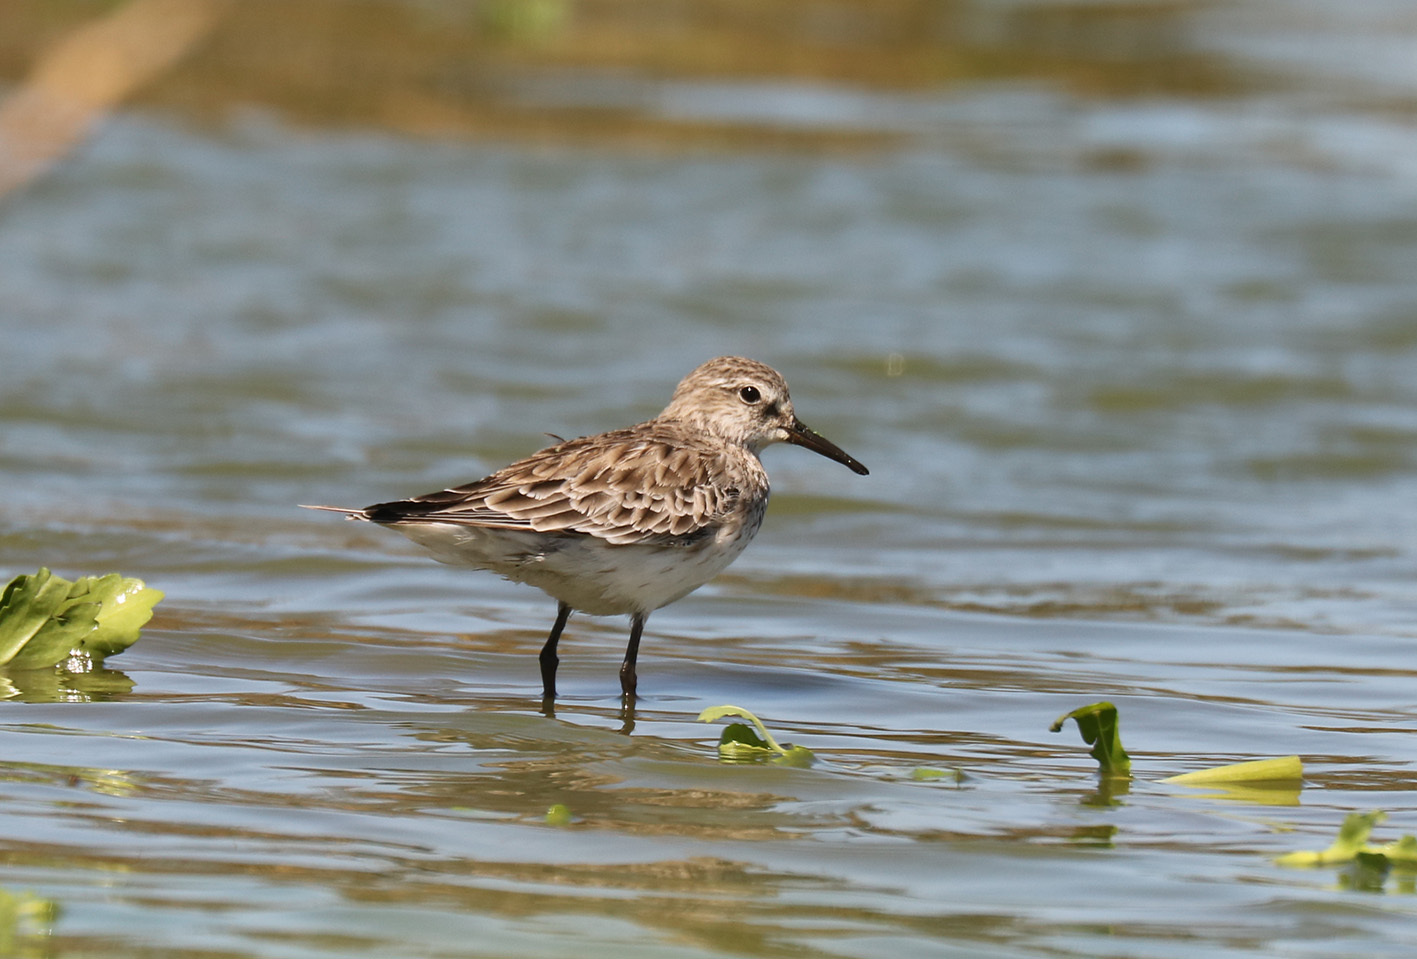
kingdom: Animalia
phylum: Chordata
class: Aves
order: Charadriiformes
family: Scolopacidae
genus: Calidris
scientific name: Calidris fuscicollis
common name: White-rumped sandpiper
